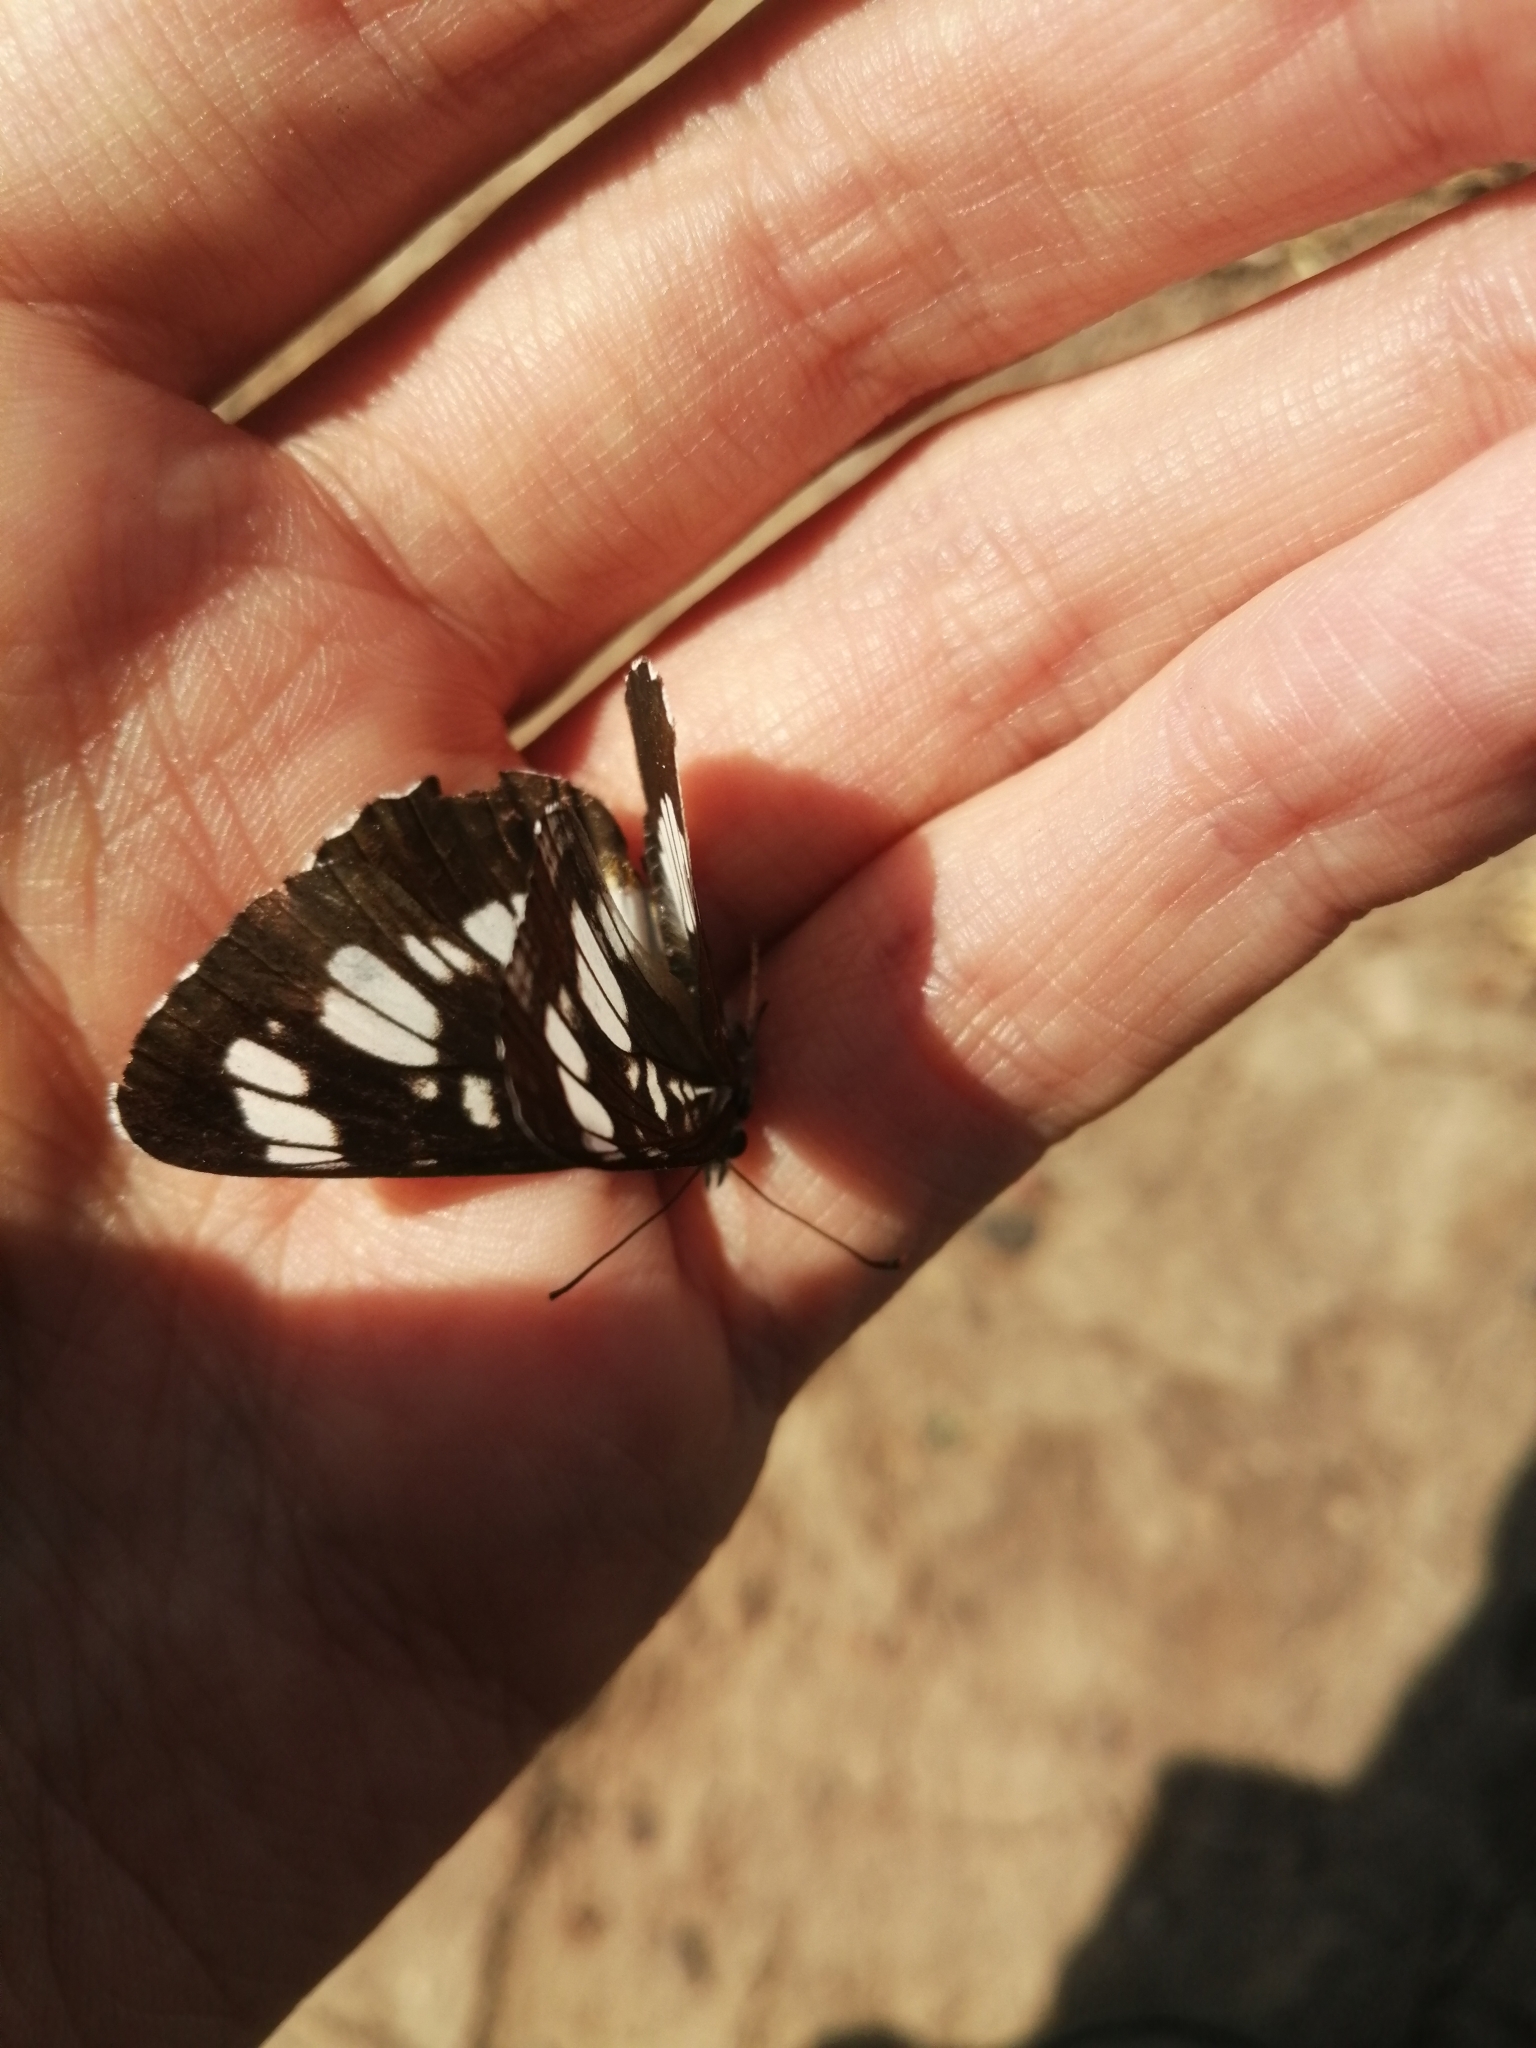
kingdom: Animalia
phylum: Arthropoda
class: Insecta
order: Lepidoptera
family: Nymphalidae
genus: Neptis
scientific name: Neptis rivularis
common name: Hungarian glider
